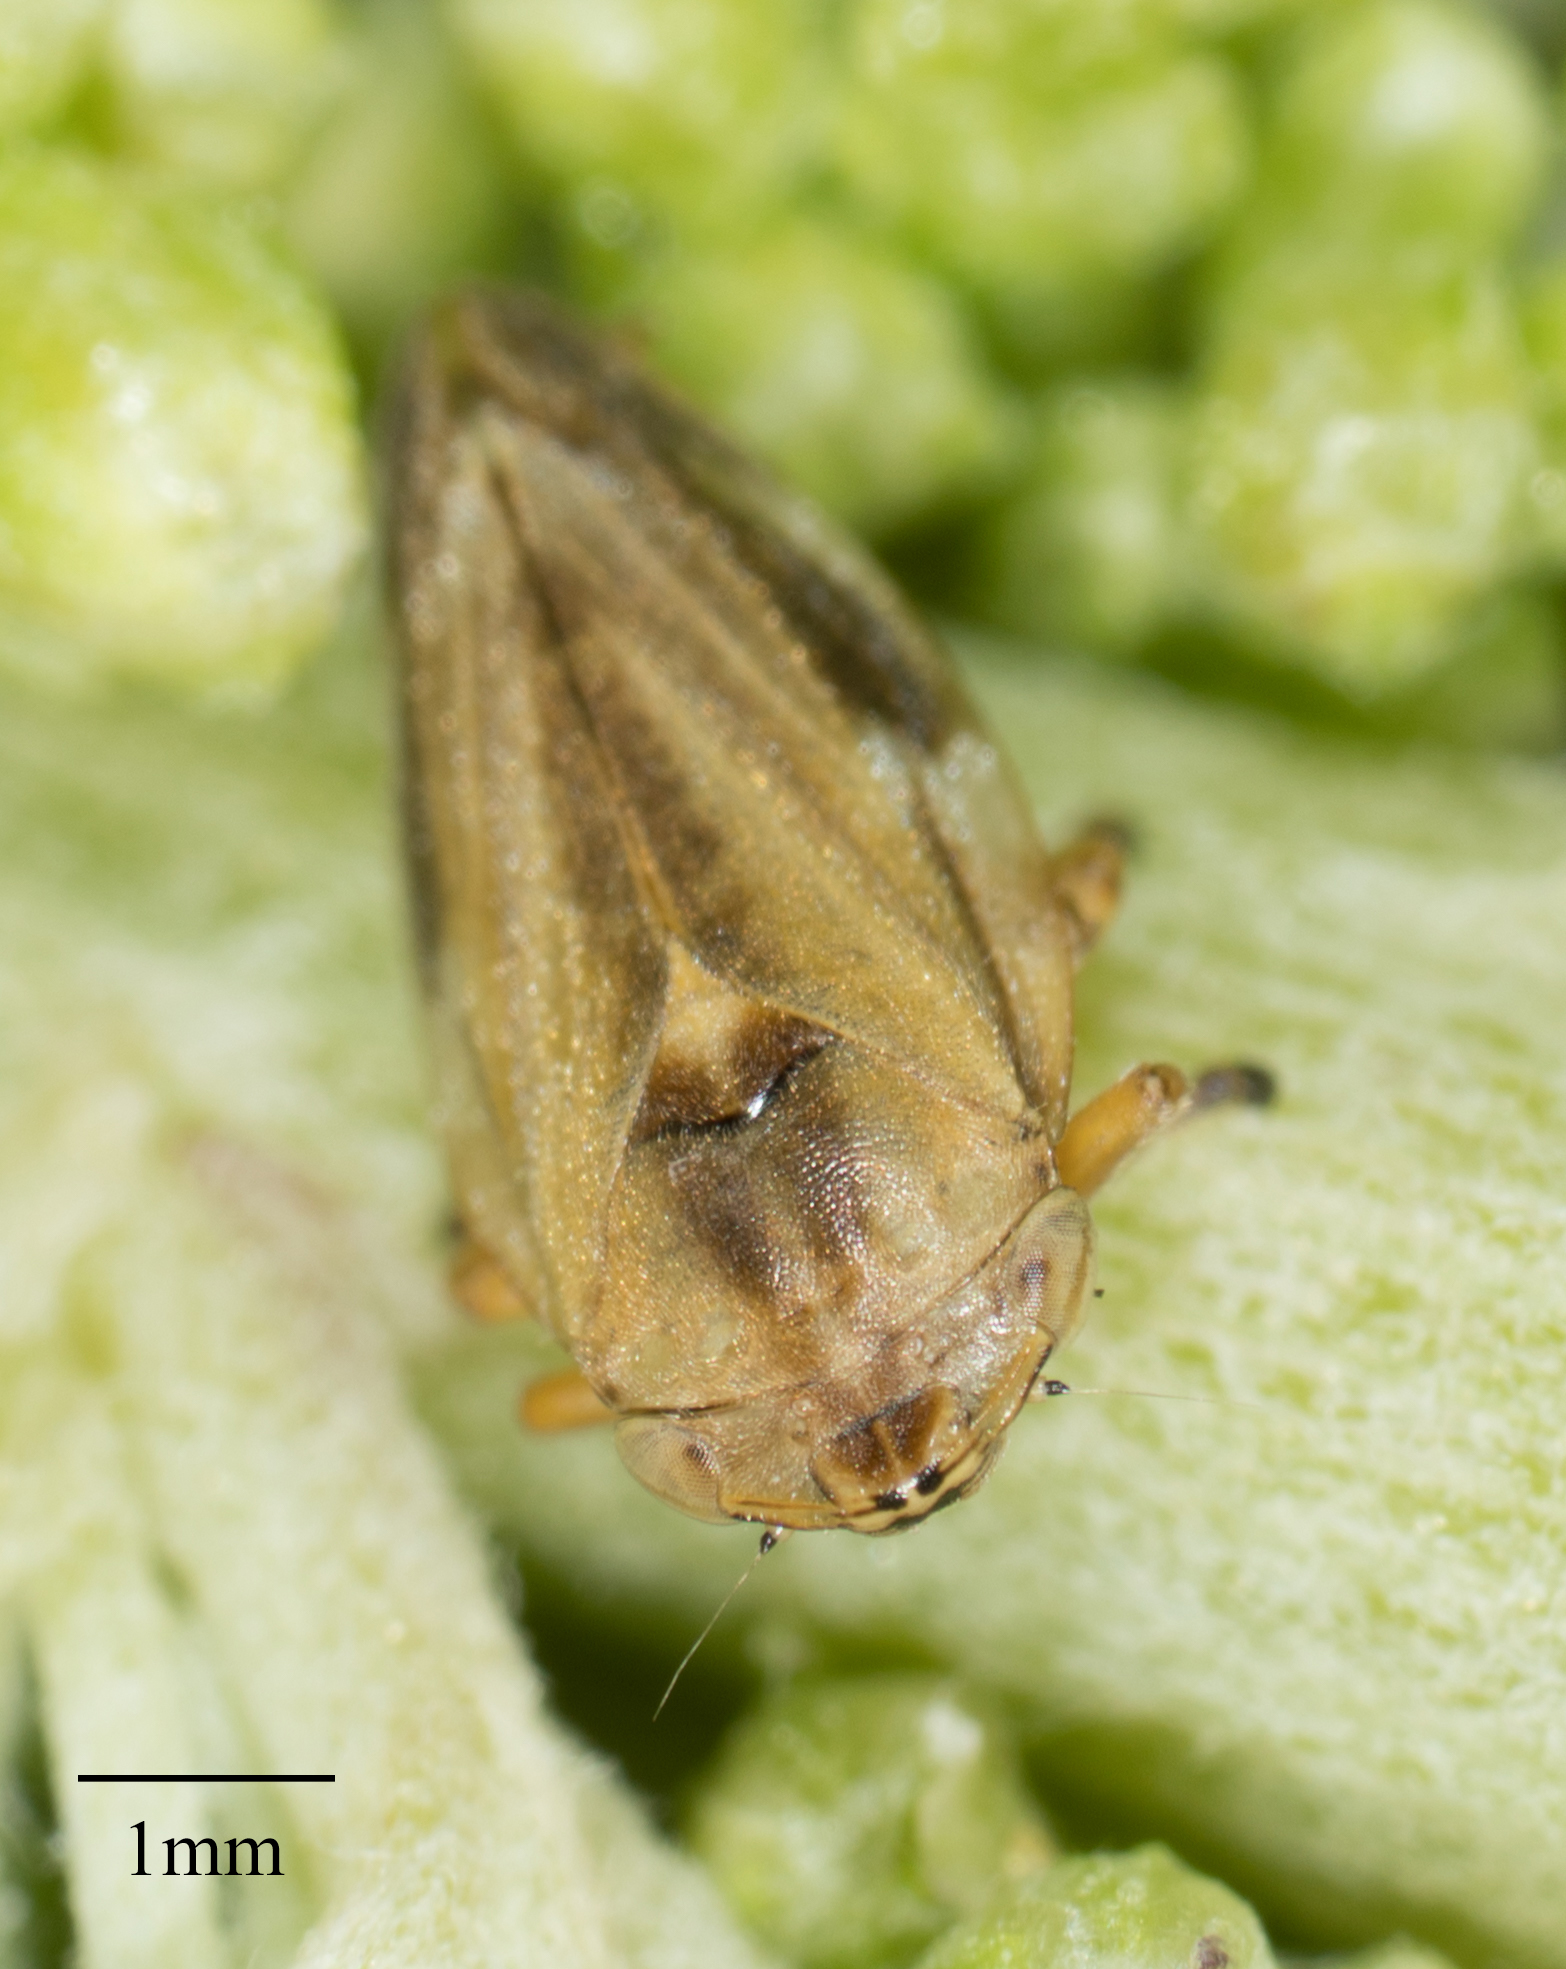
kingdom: Animalia
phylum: Arthropoda
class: Insecta
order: Hemiptera
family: Aphrophoridae
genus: Philaenus
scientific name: Philaenus spumarius
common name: Meadow spittlebug
